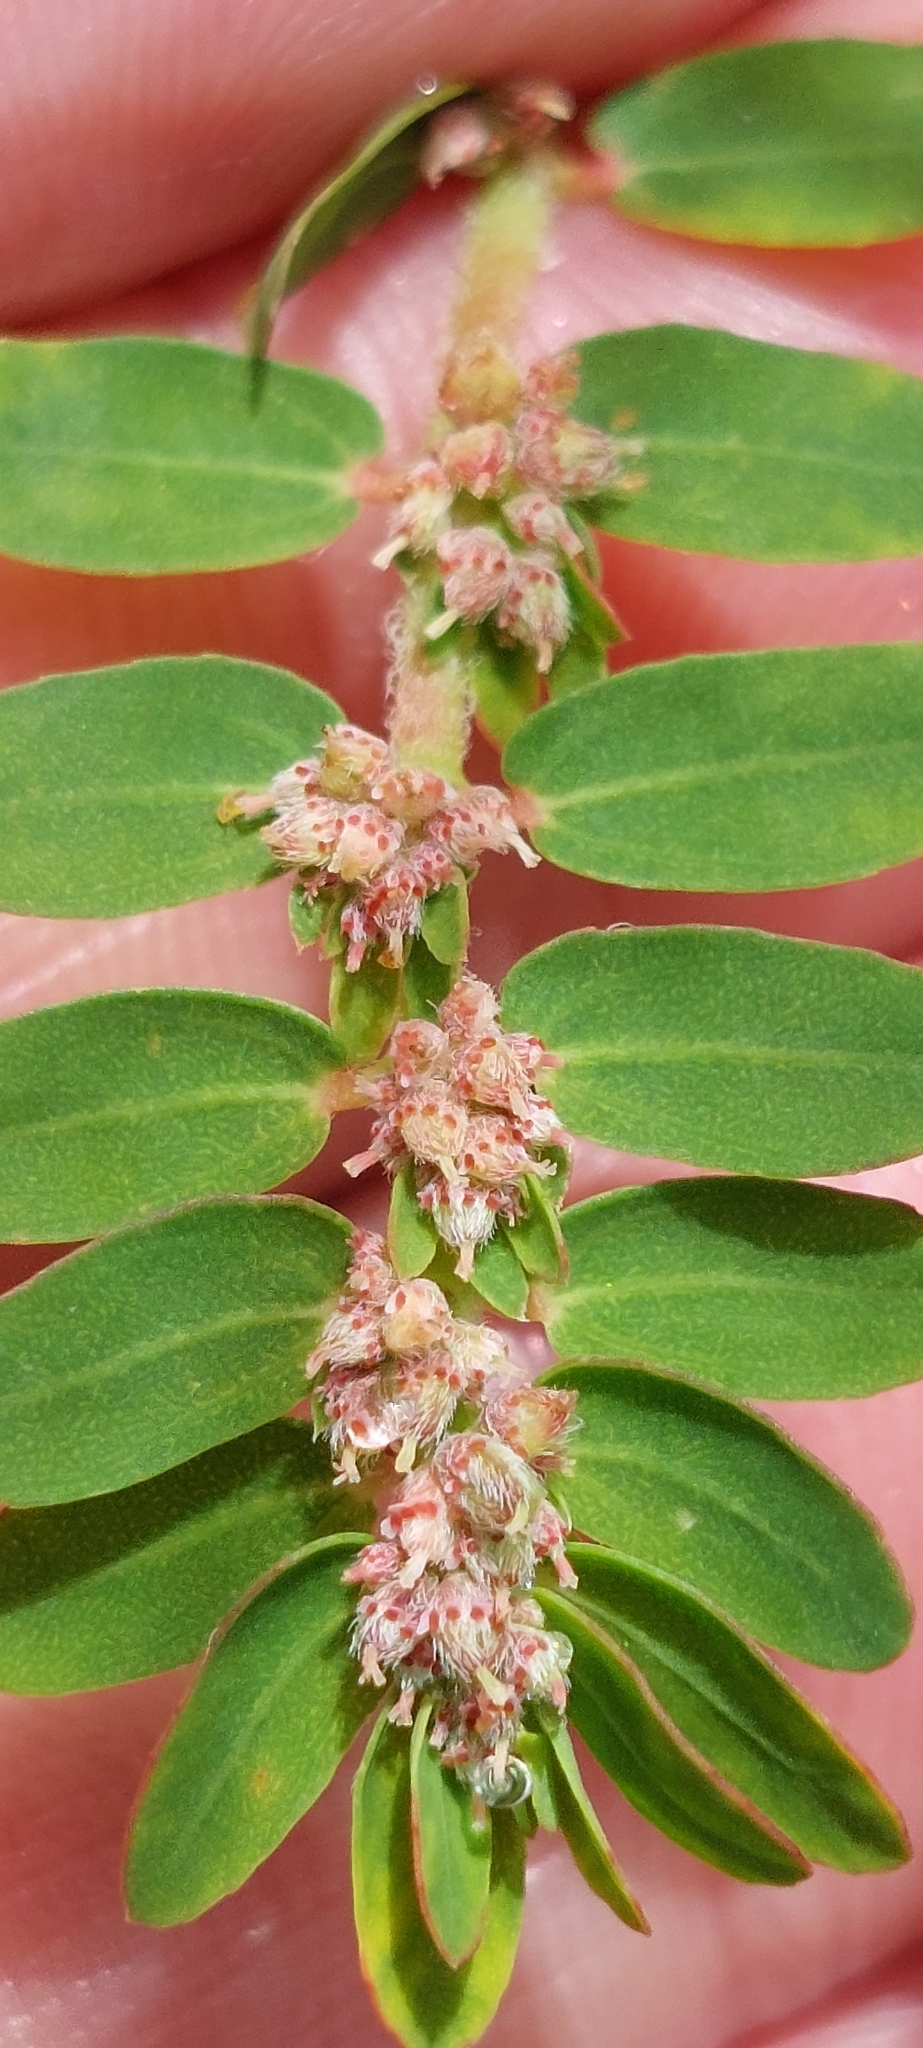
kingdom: Plantae
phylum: Tracheophyta
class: Magnoliopsida
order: Malpighiales
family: Euphorbiaceae
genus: Euphorbia
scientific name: Euphorbia thymifolia
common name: Gulf sandmat
